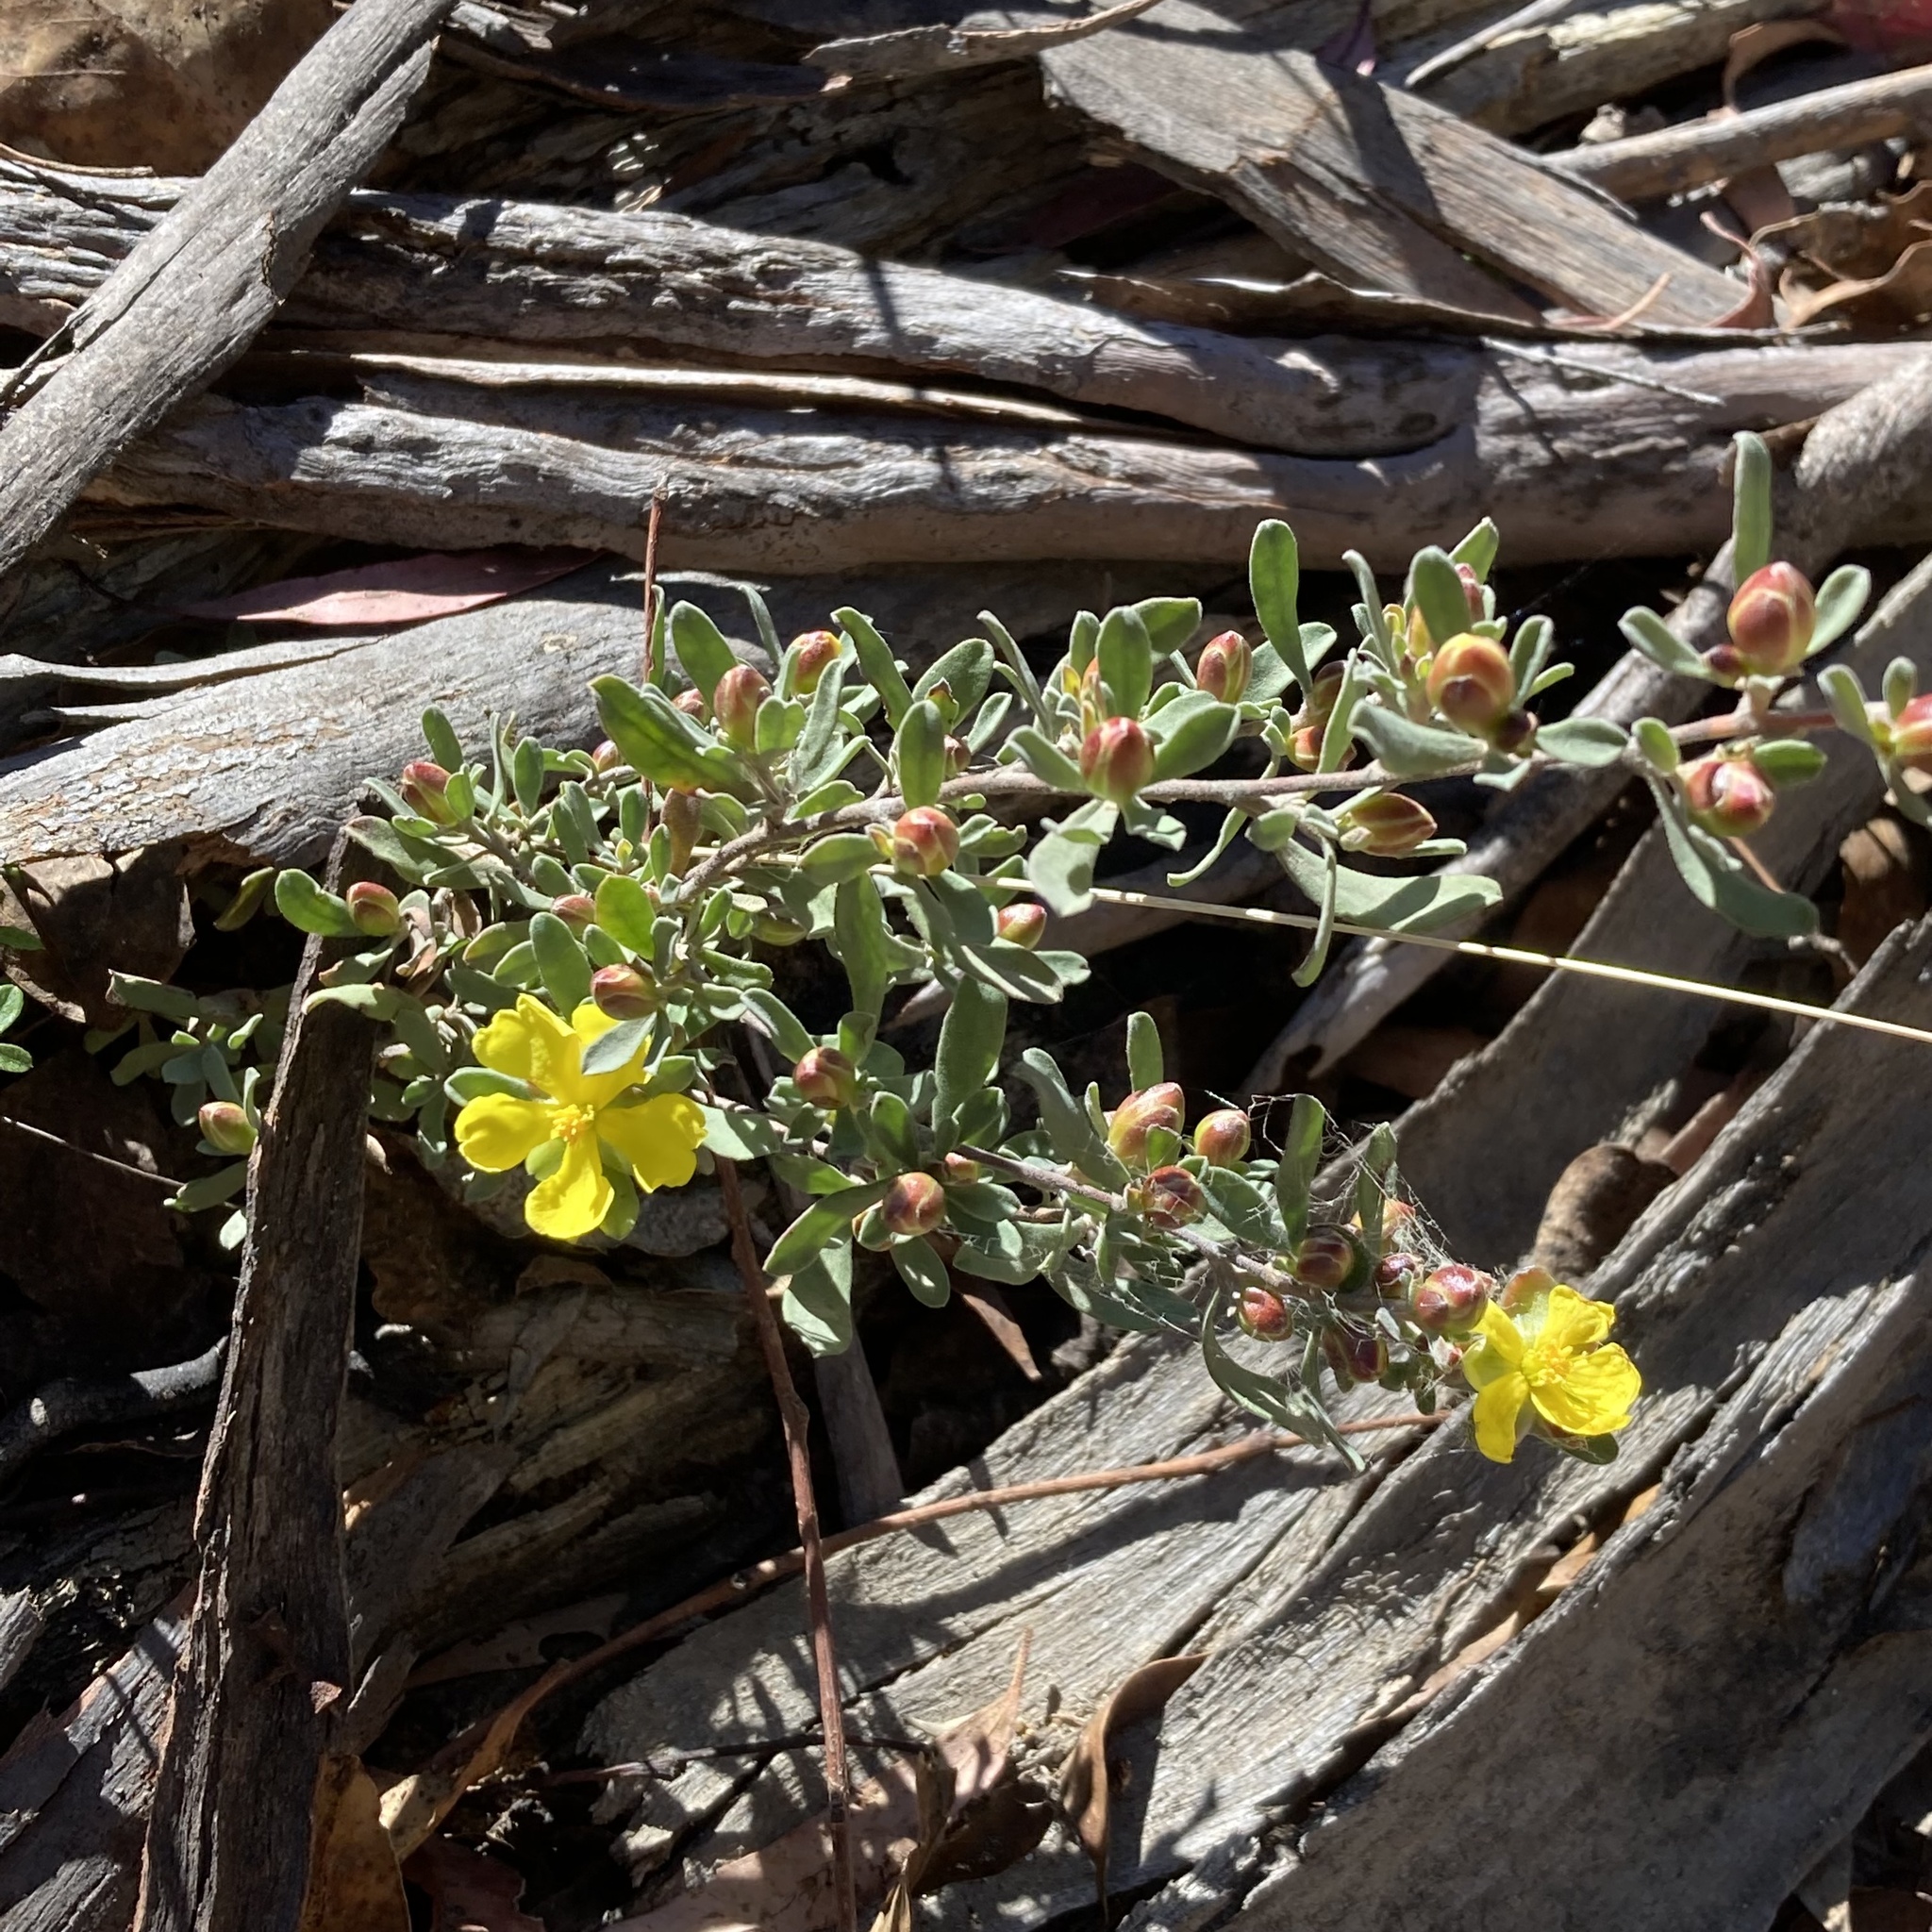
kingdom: Plantae
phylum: Tracheophyta
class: Magnoliopsida
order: Dilleniales
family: Dilleniaceae
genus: Hibbertia
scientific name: Hibbertia obtusifolia
